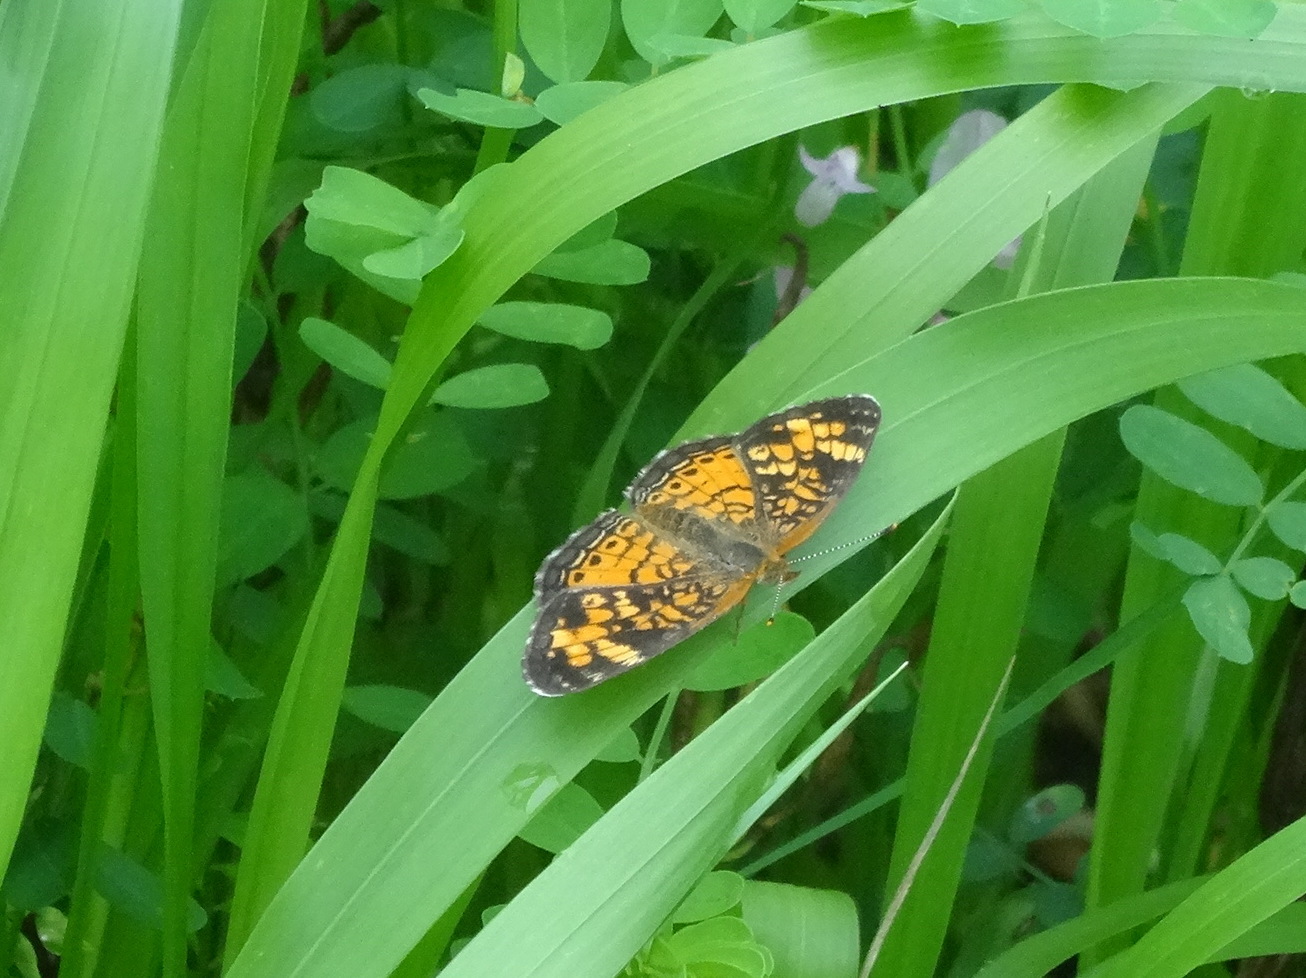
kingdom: Animalia
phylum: Arthropoda
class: Insecta
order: Lepidoptera
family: Nymphalidae
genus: Phyciodes
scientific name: Phyciodes tharos
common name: Pearl crescent
